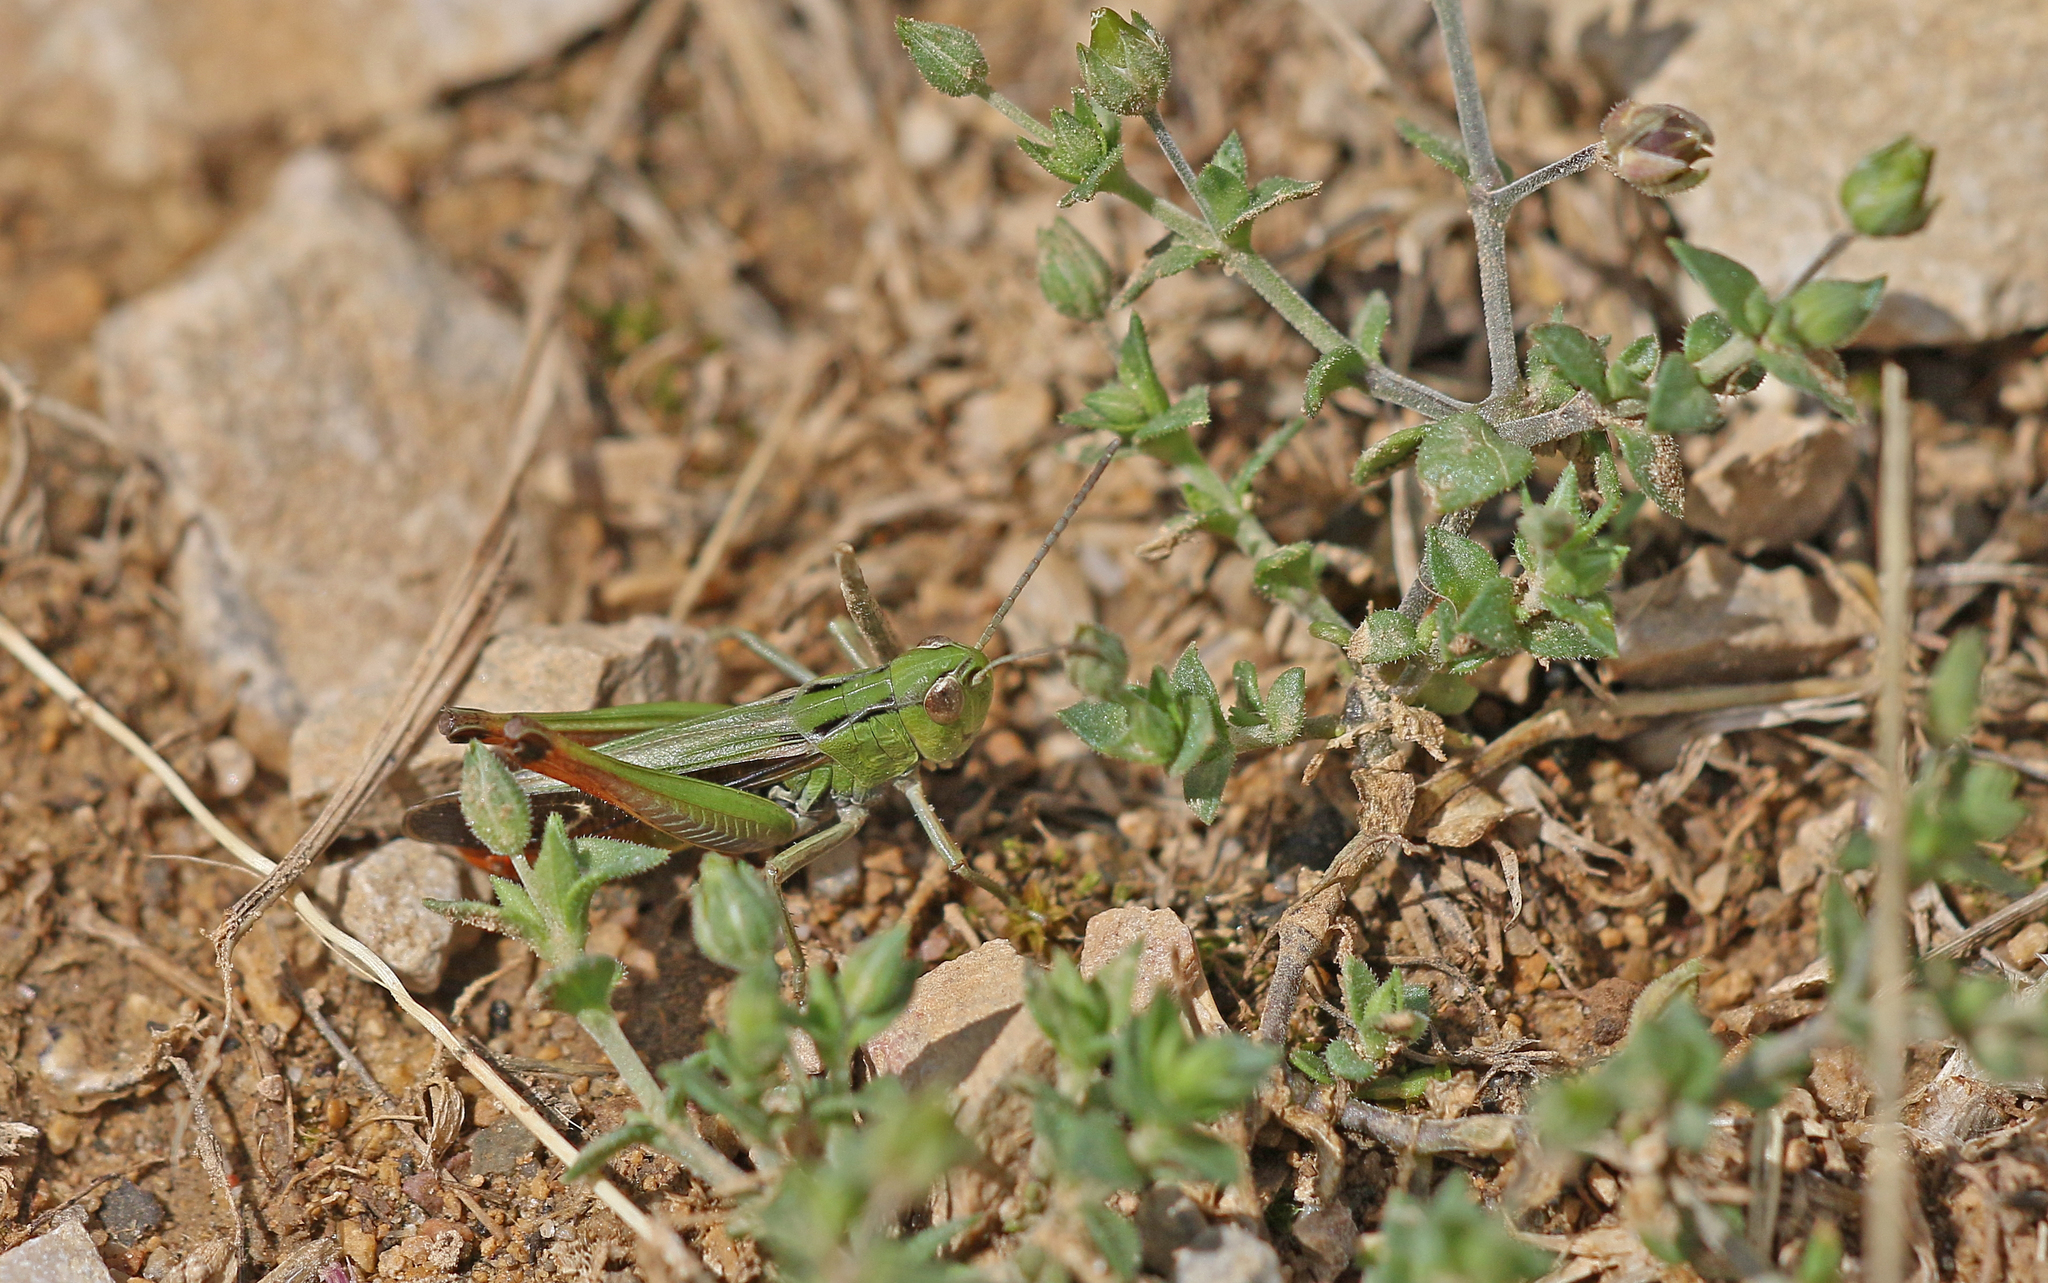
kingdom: Animalia
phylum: Arthropoda
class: Insecta
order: Orthoptera
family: Acrididae
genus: Stenobothrus
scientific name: Stenobothrus lineatus
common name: Stripe-winged grasshopper
